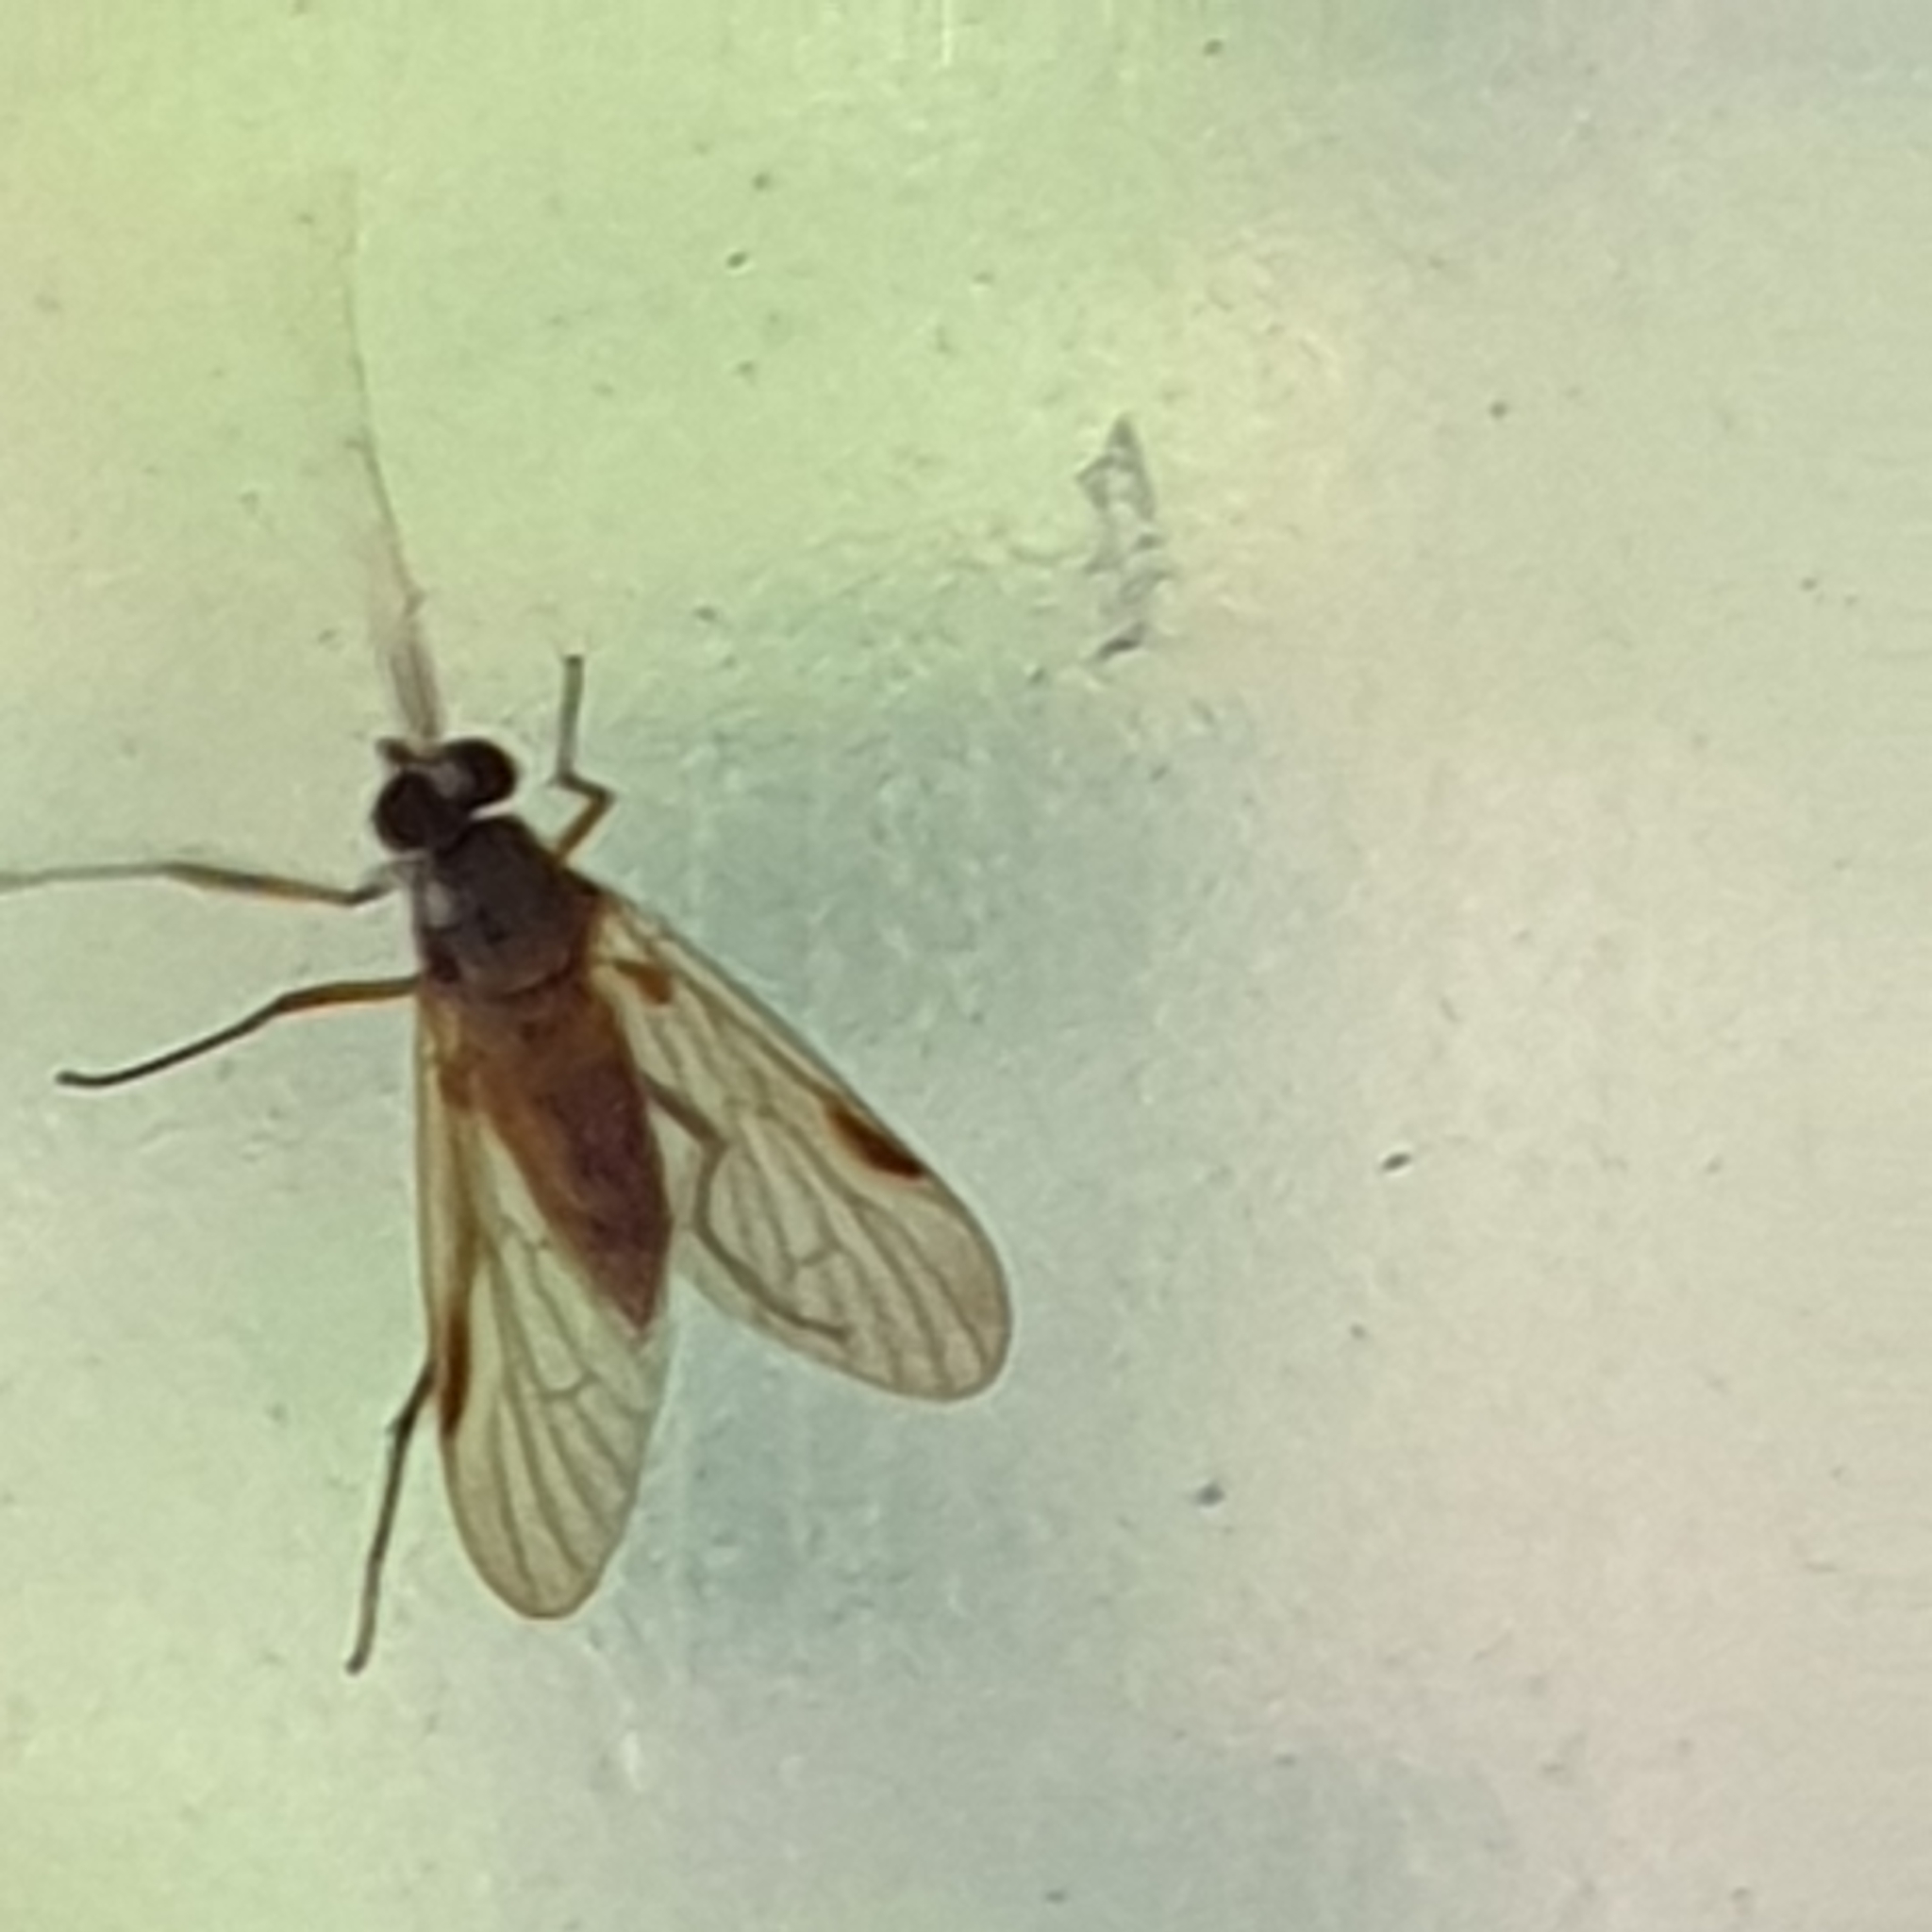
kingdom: Animalia
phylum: Arthropoda
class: Insecta
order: Diptera
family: Rhagionidae
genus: Rhagio
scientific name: Rhagio lineola
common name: Small fleck-winged snipefly
